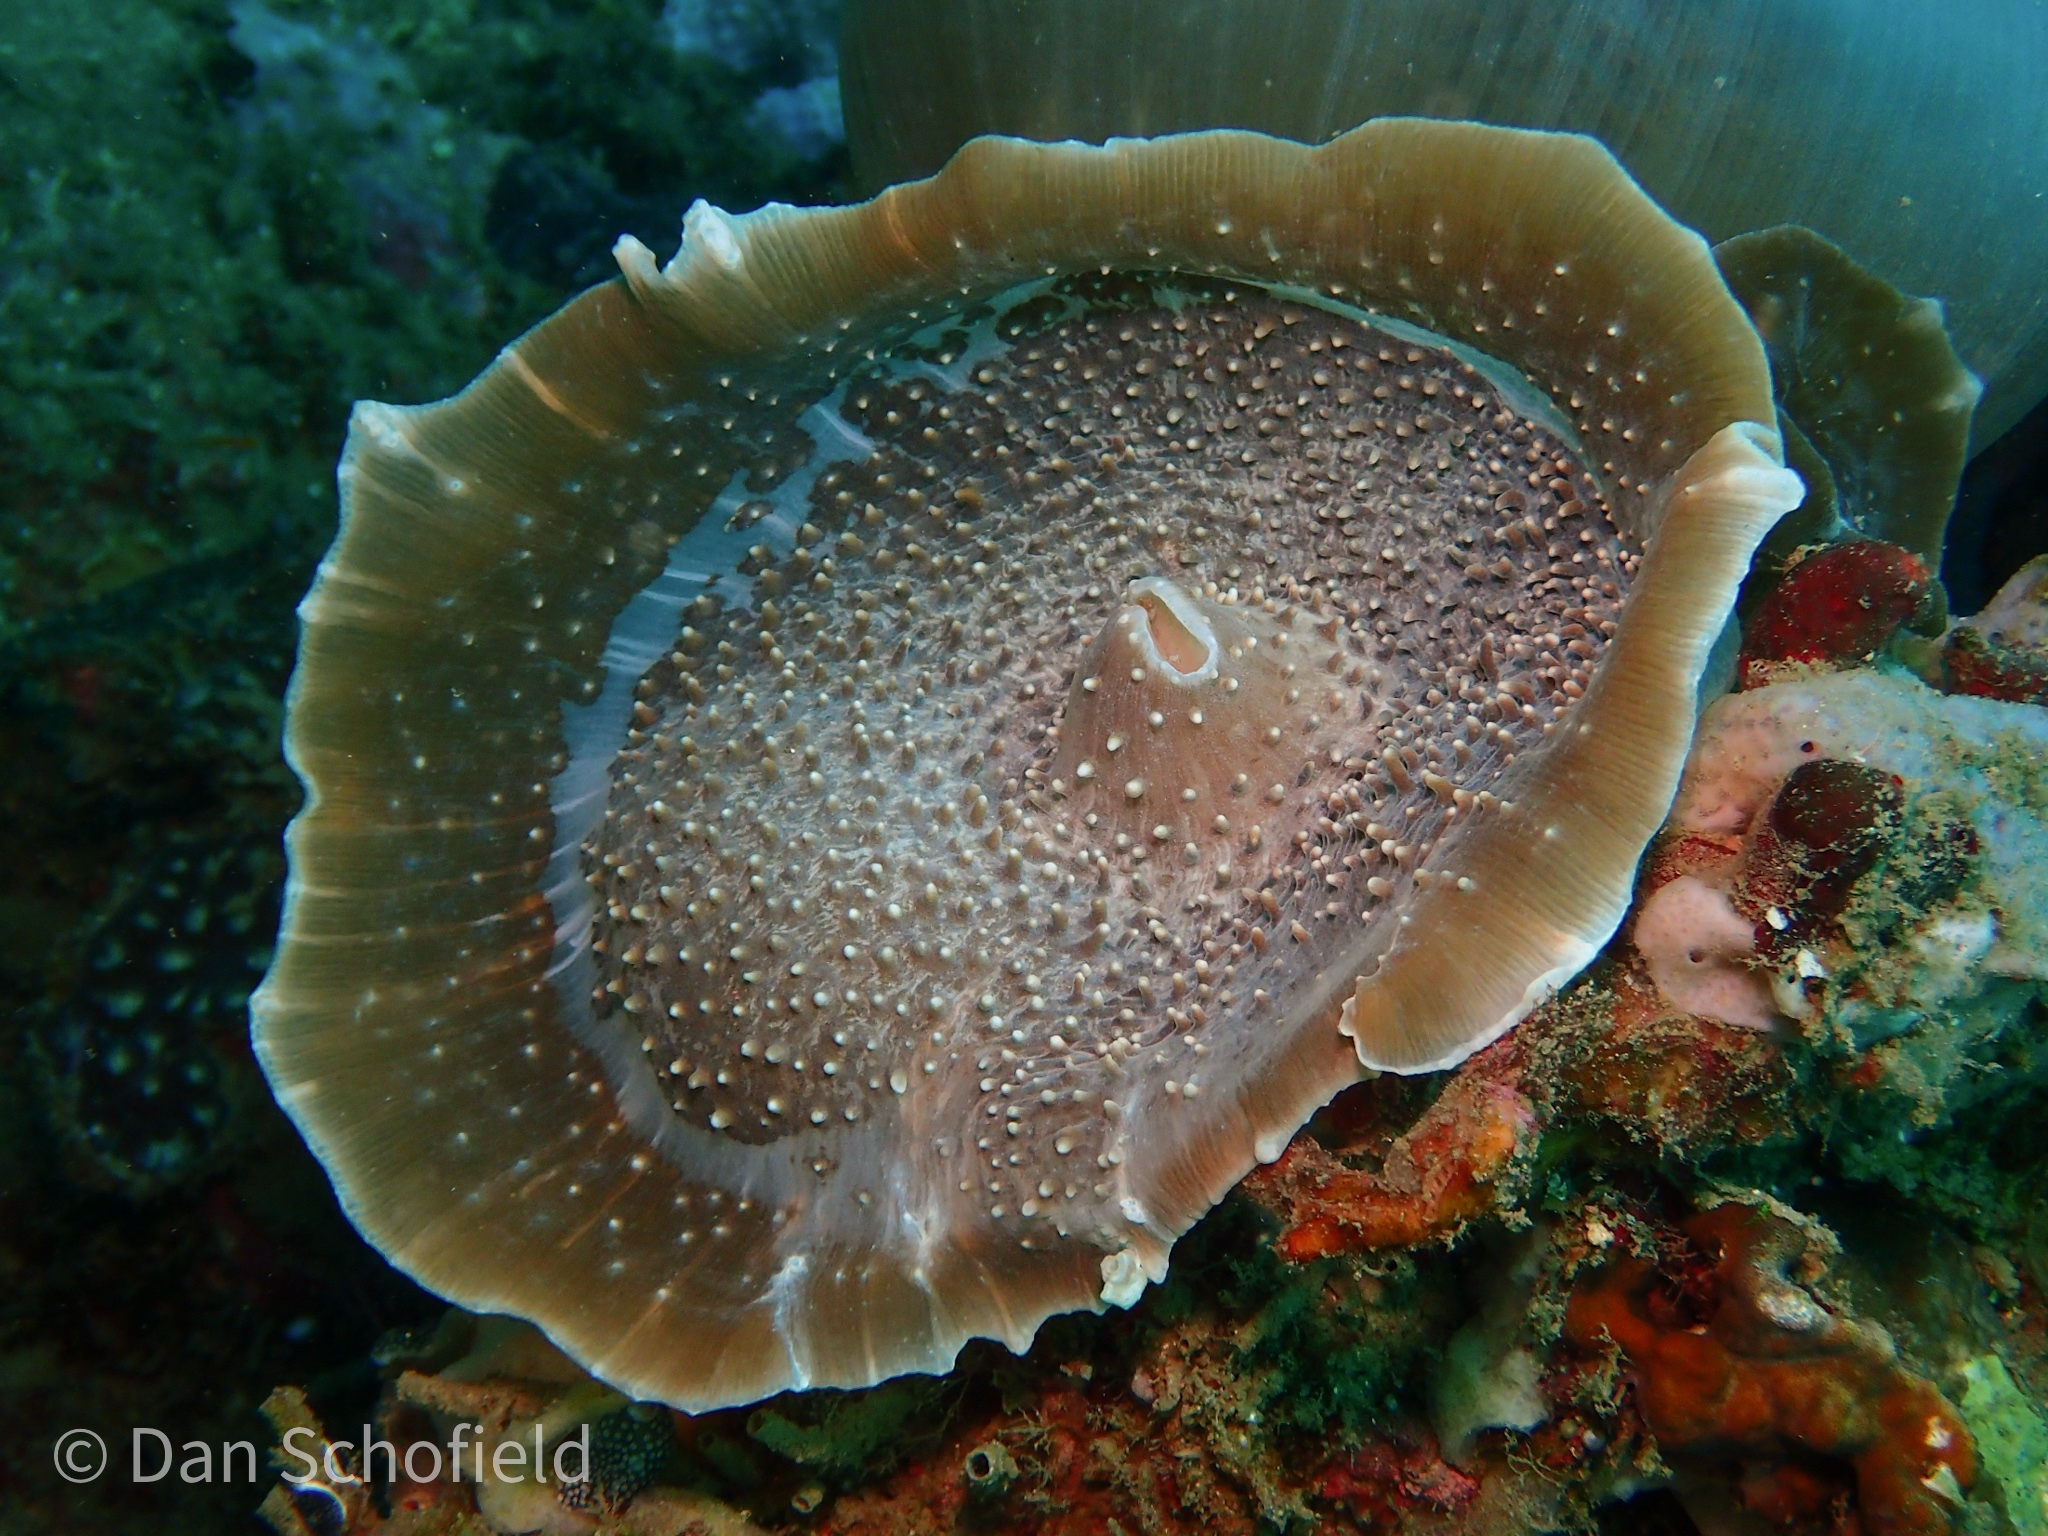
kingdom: Animalia
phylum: Cnidaria
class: Anthozoa
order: Corallimorpharia
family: Discosomidae
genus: Amplexidiscus
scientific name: Amplexidiscus fenestrafer
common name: Elephant ear anemone
